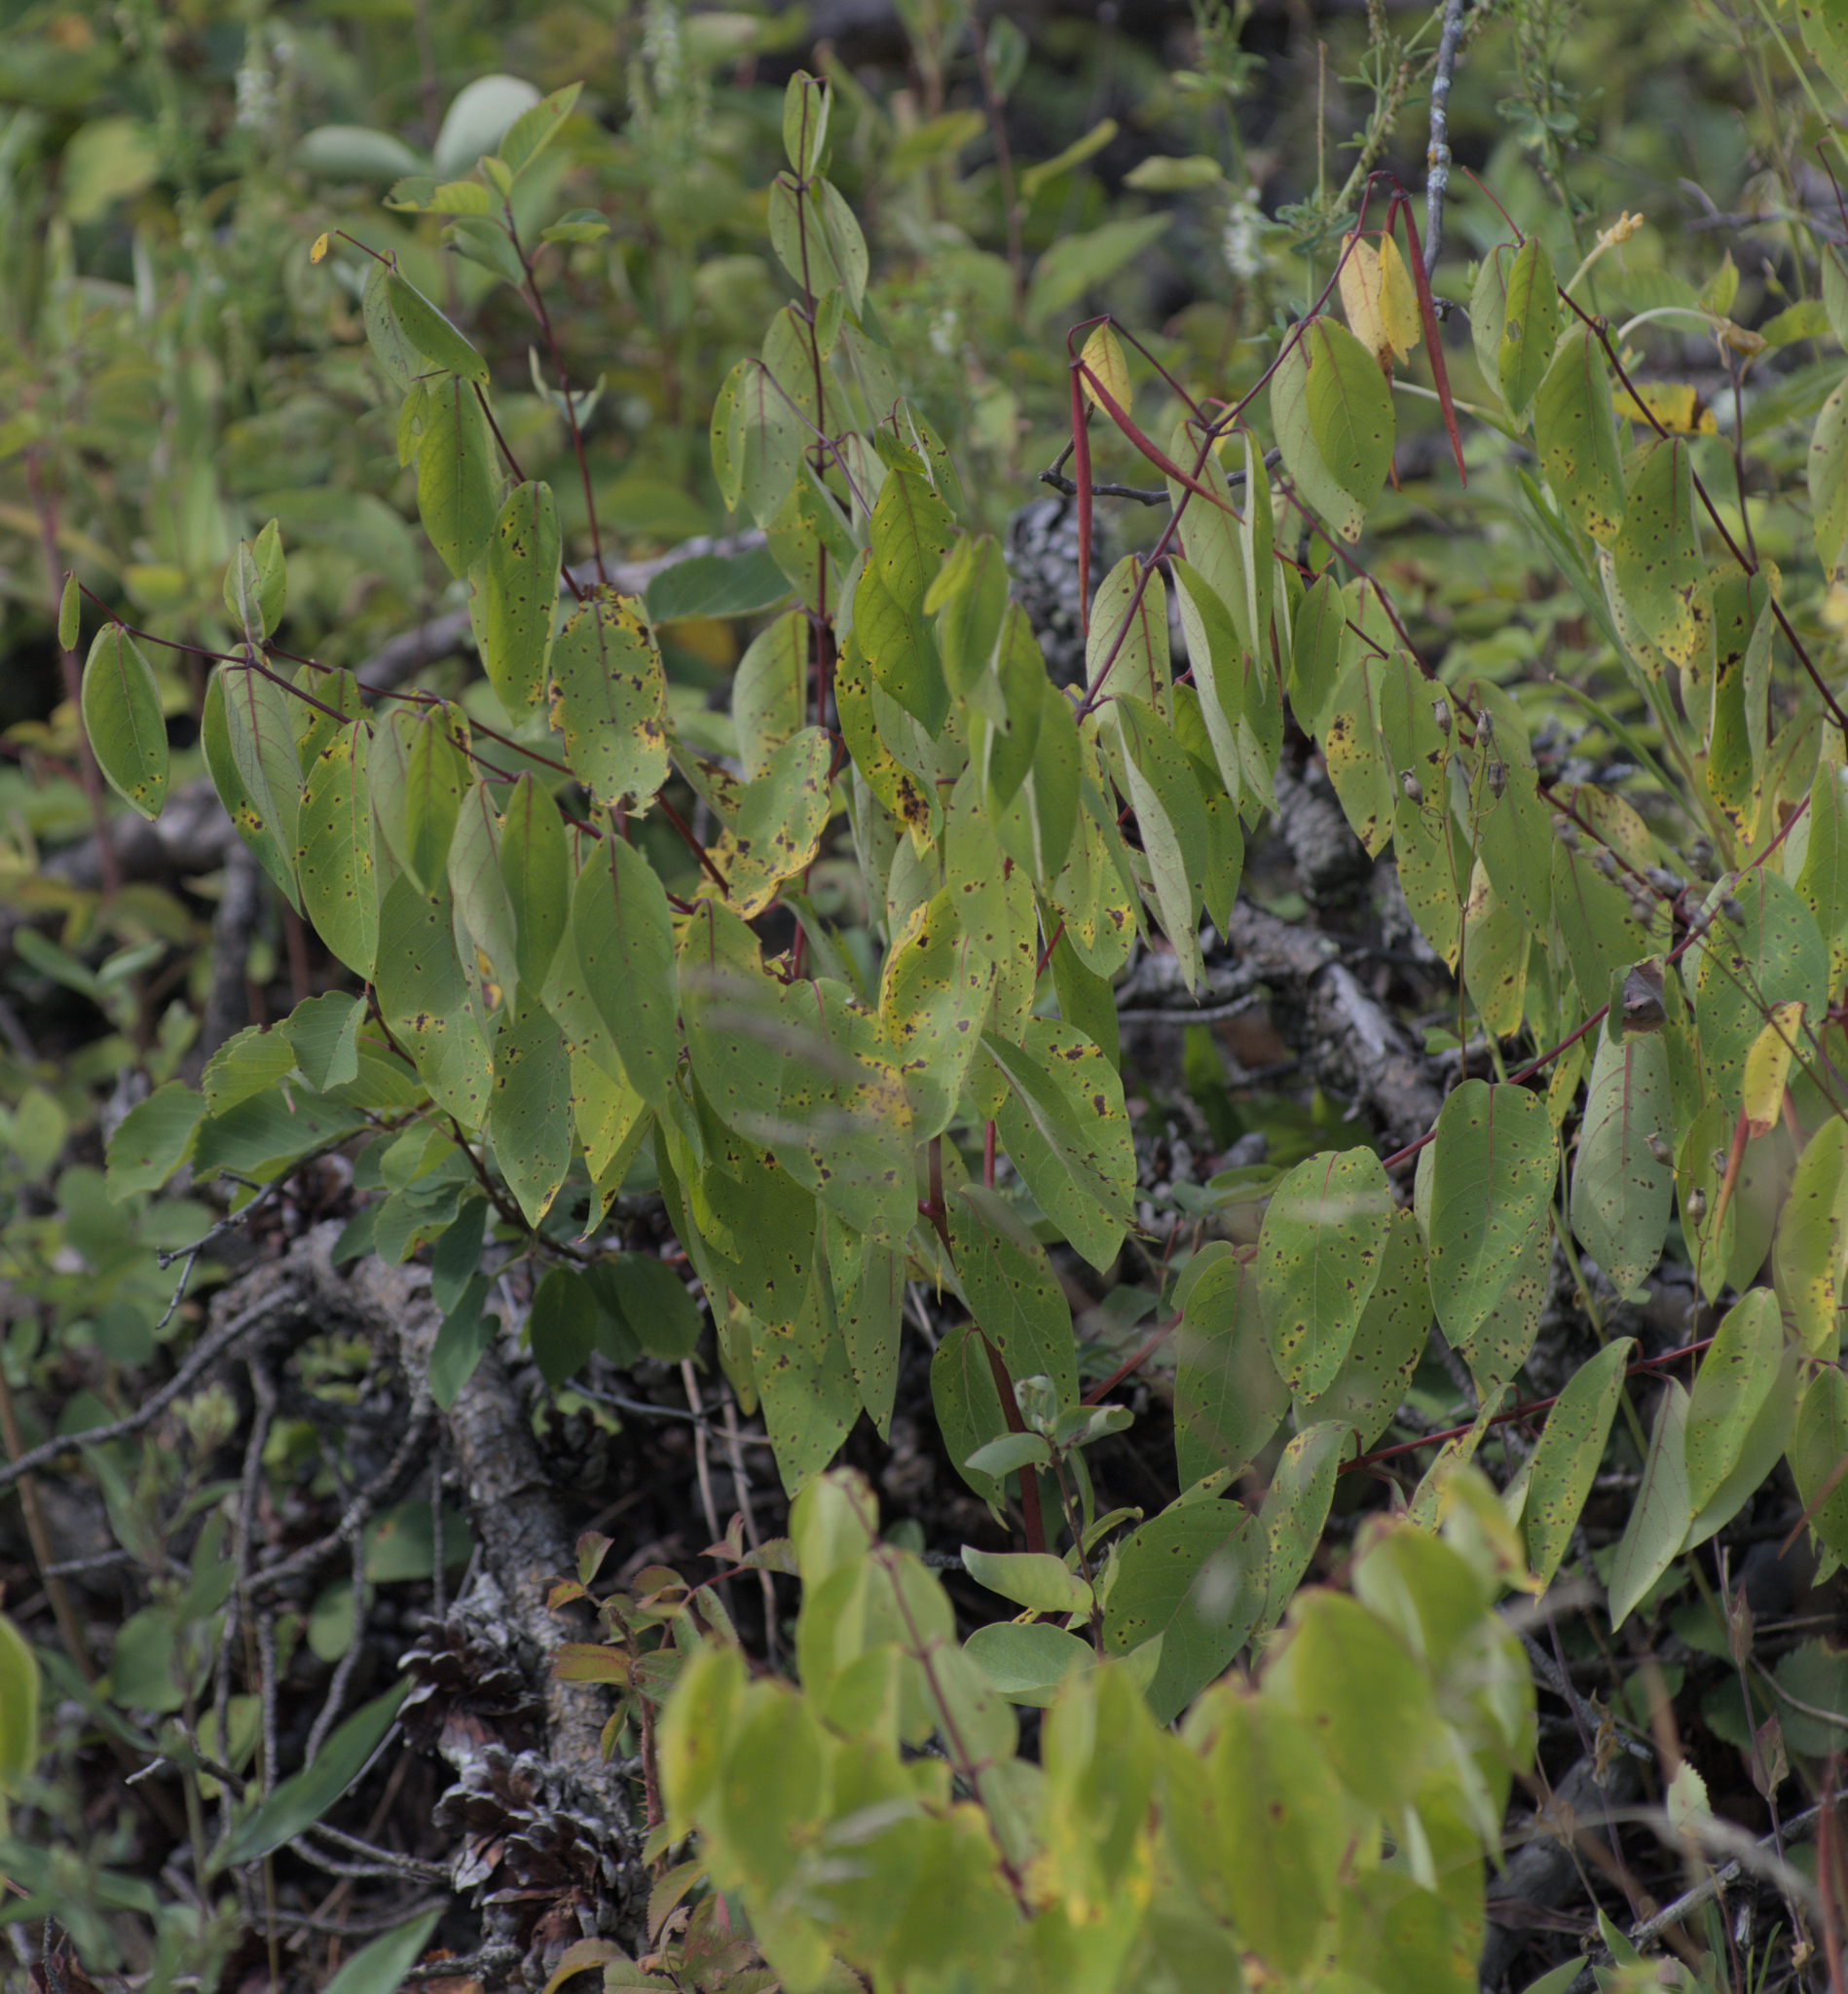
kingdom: Plantae
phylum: Tracheophyta
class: Magnoliopsida
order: Gentianales
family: Apocynaceae
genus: Apocynum
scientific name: Apocynum androsaemifolium
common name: Spreading dogbane
